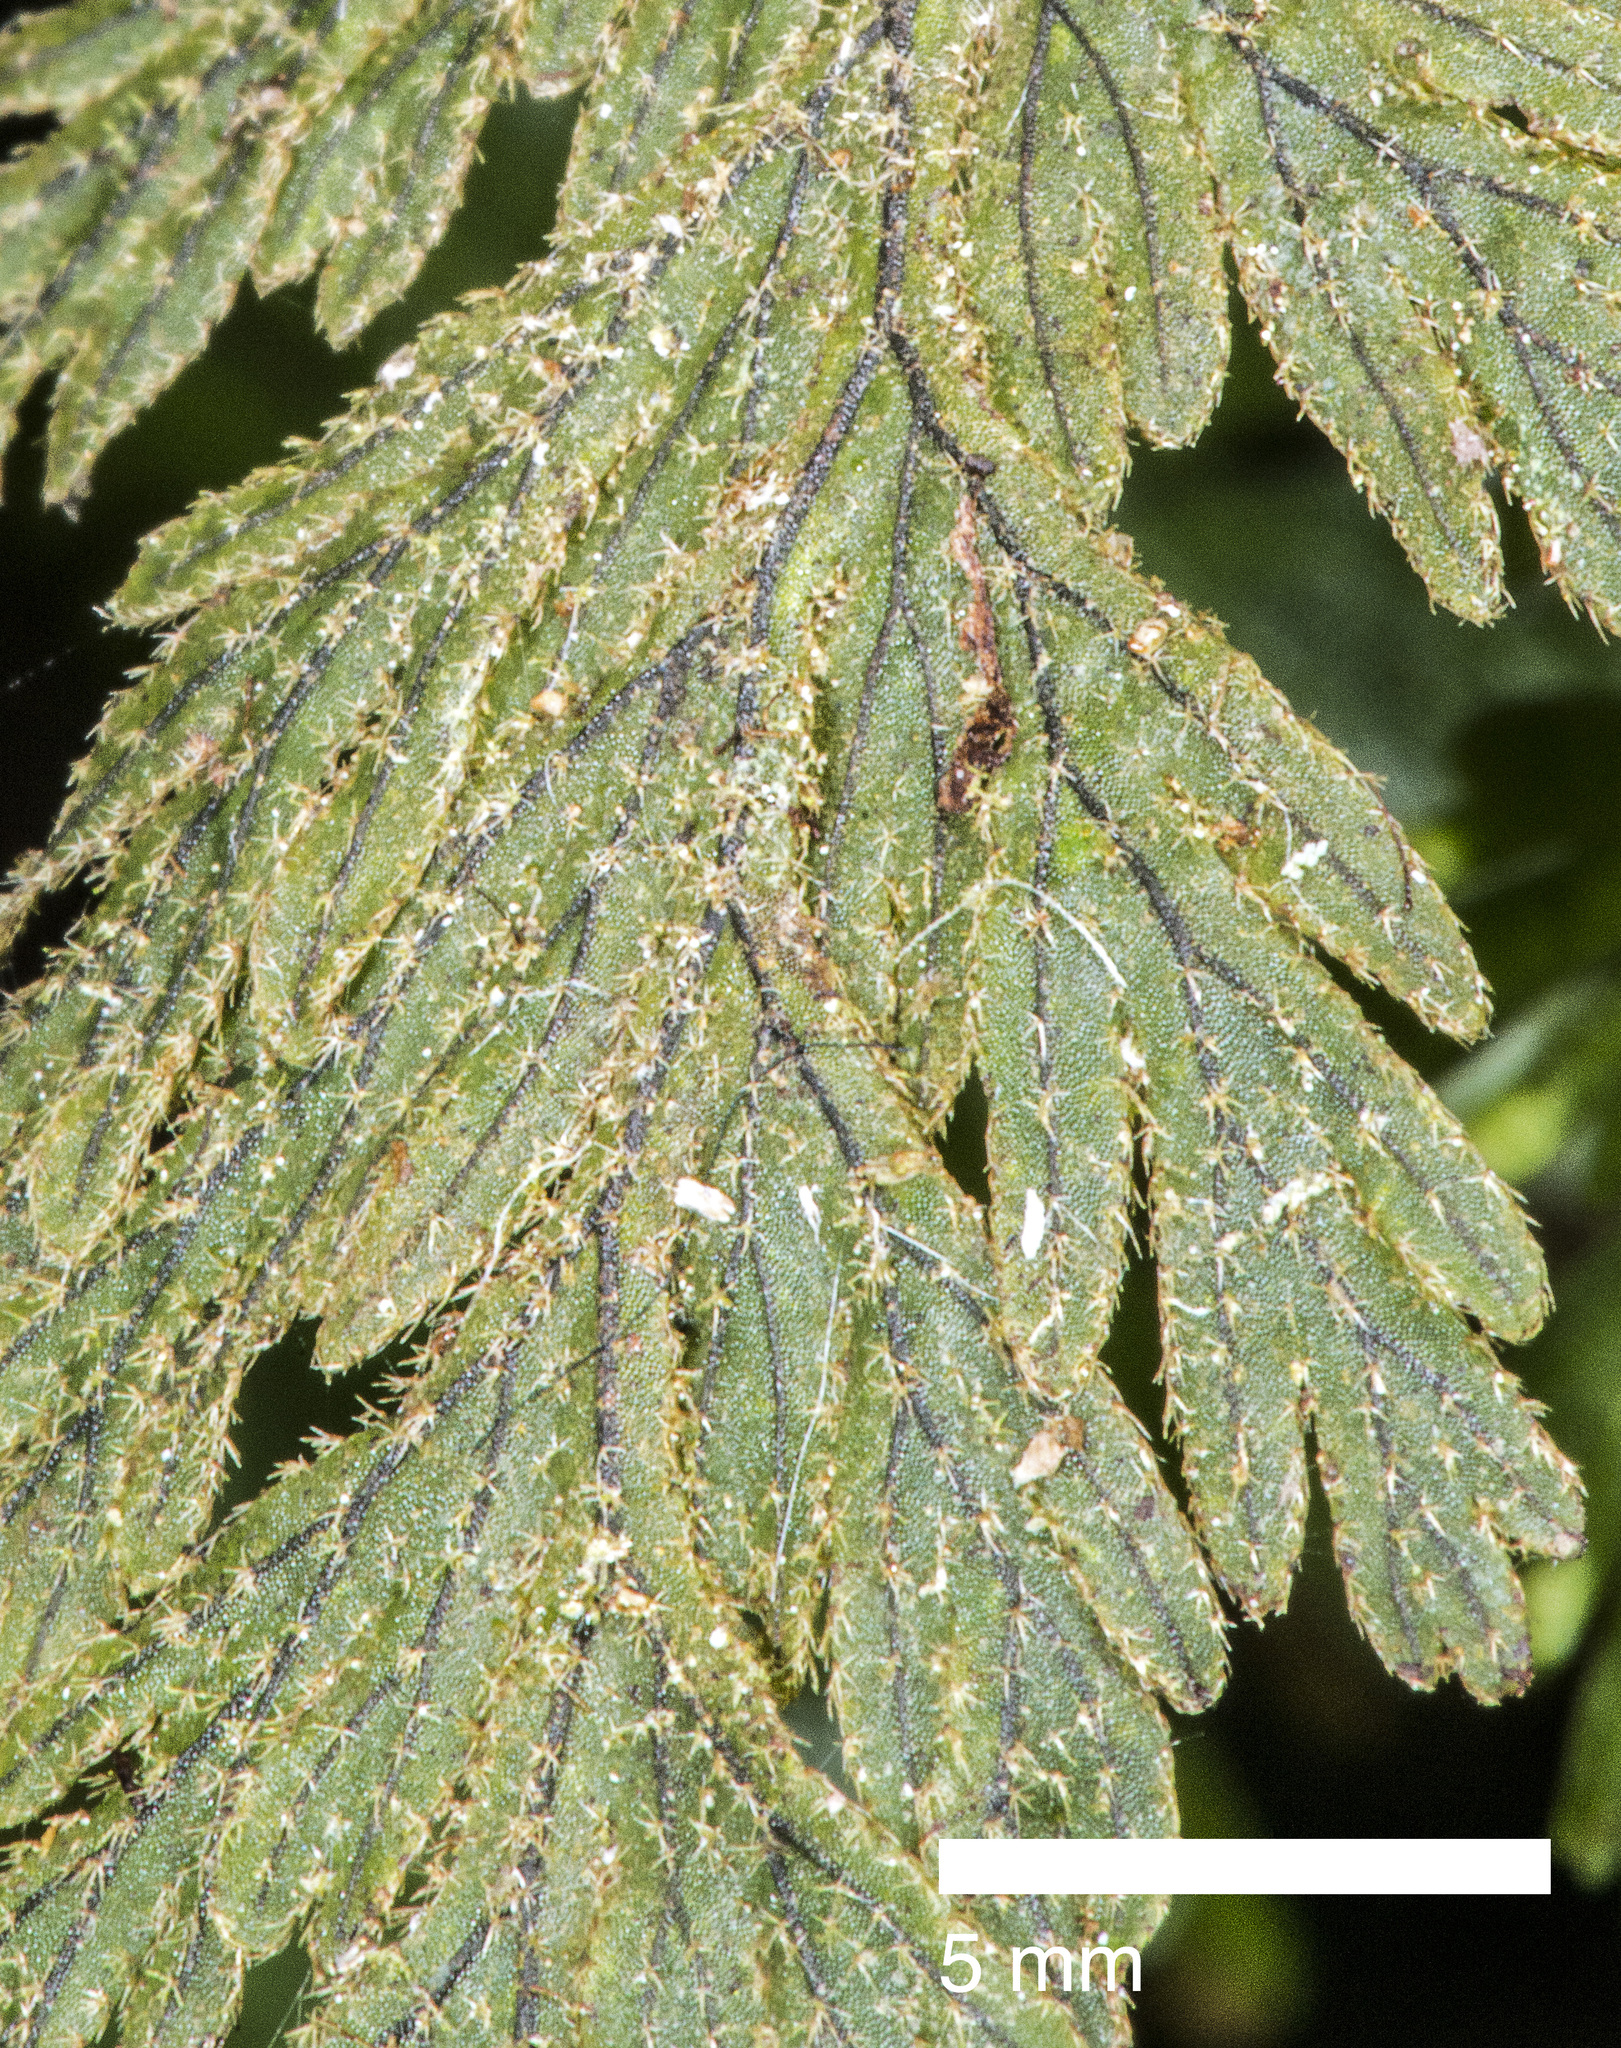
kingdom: Plantae
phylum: Tracheophyta
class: Polypodiopsida
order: Hymenophyllales
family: Hymenophyllaceae
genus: Hymenophyllum
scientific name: Hymenophyllum frankliniae
